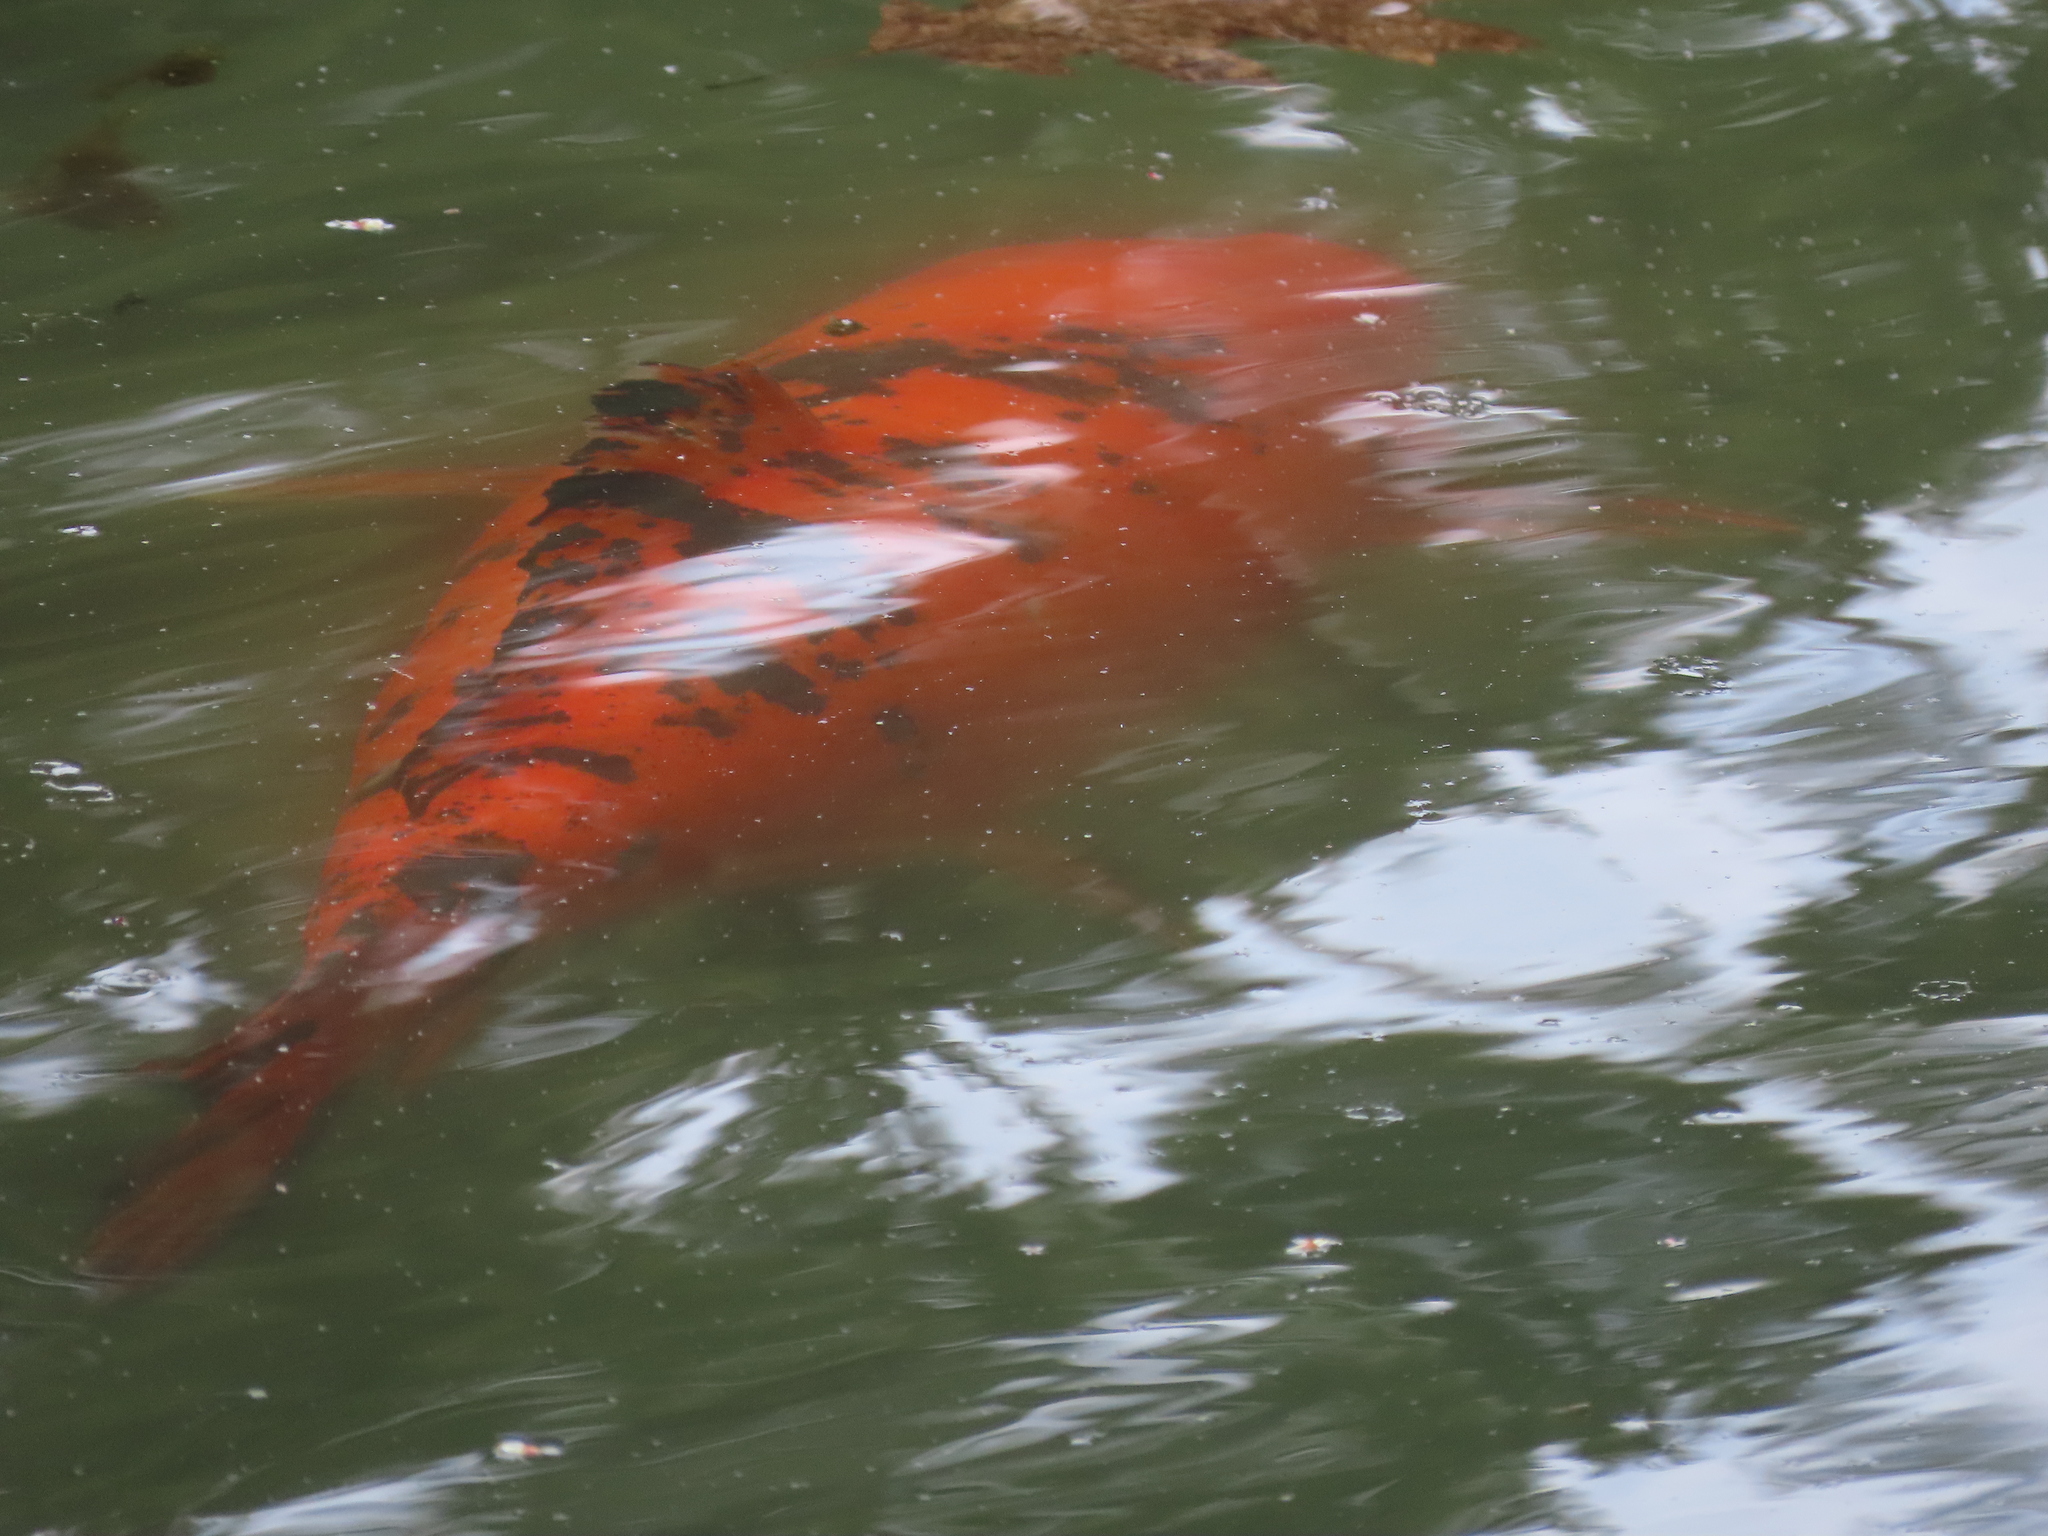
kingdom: Animalia
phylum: Chordata
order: Cypriniformes
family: Cyprinidae
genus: Cyprinus
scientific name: Cyprinus rubrofuscus
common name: Koi
